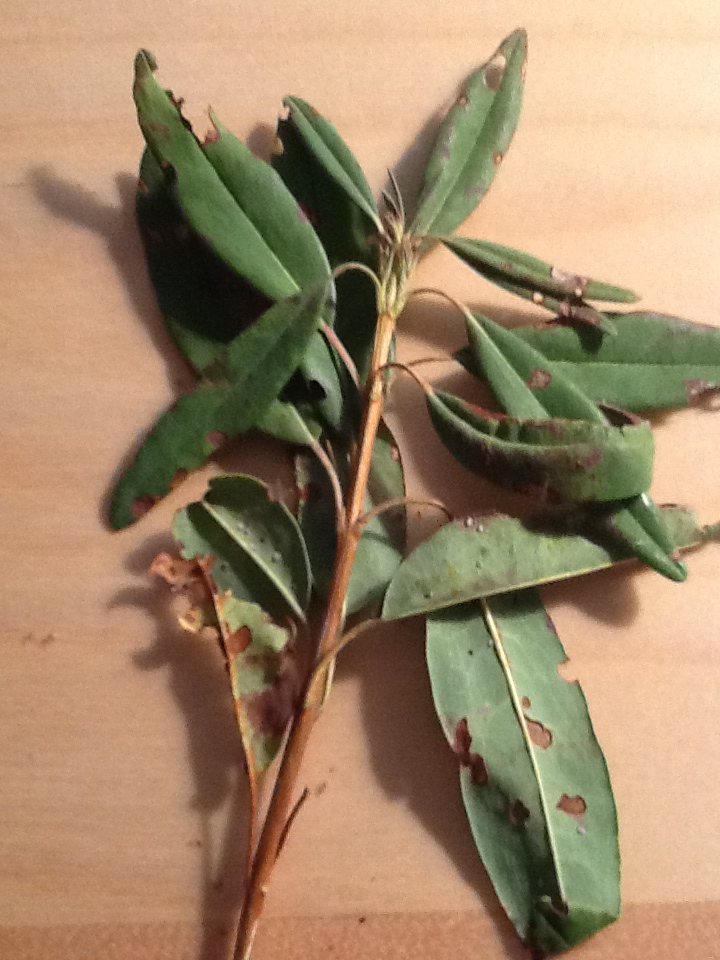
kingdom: Plantae
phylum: Tracheophyta
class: Magnoliopsida
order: Ericales
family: Ericaceae
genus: Kalmia
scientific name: Kalmia angustifolia
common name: Sheep-laurel
